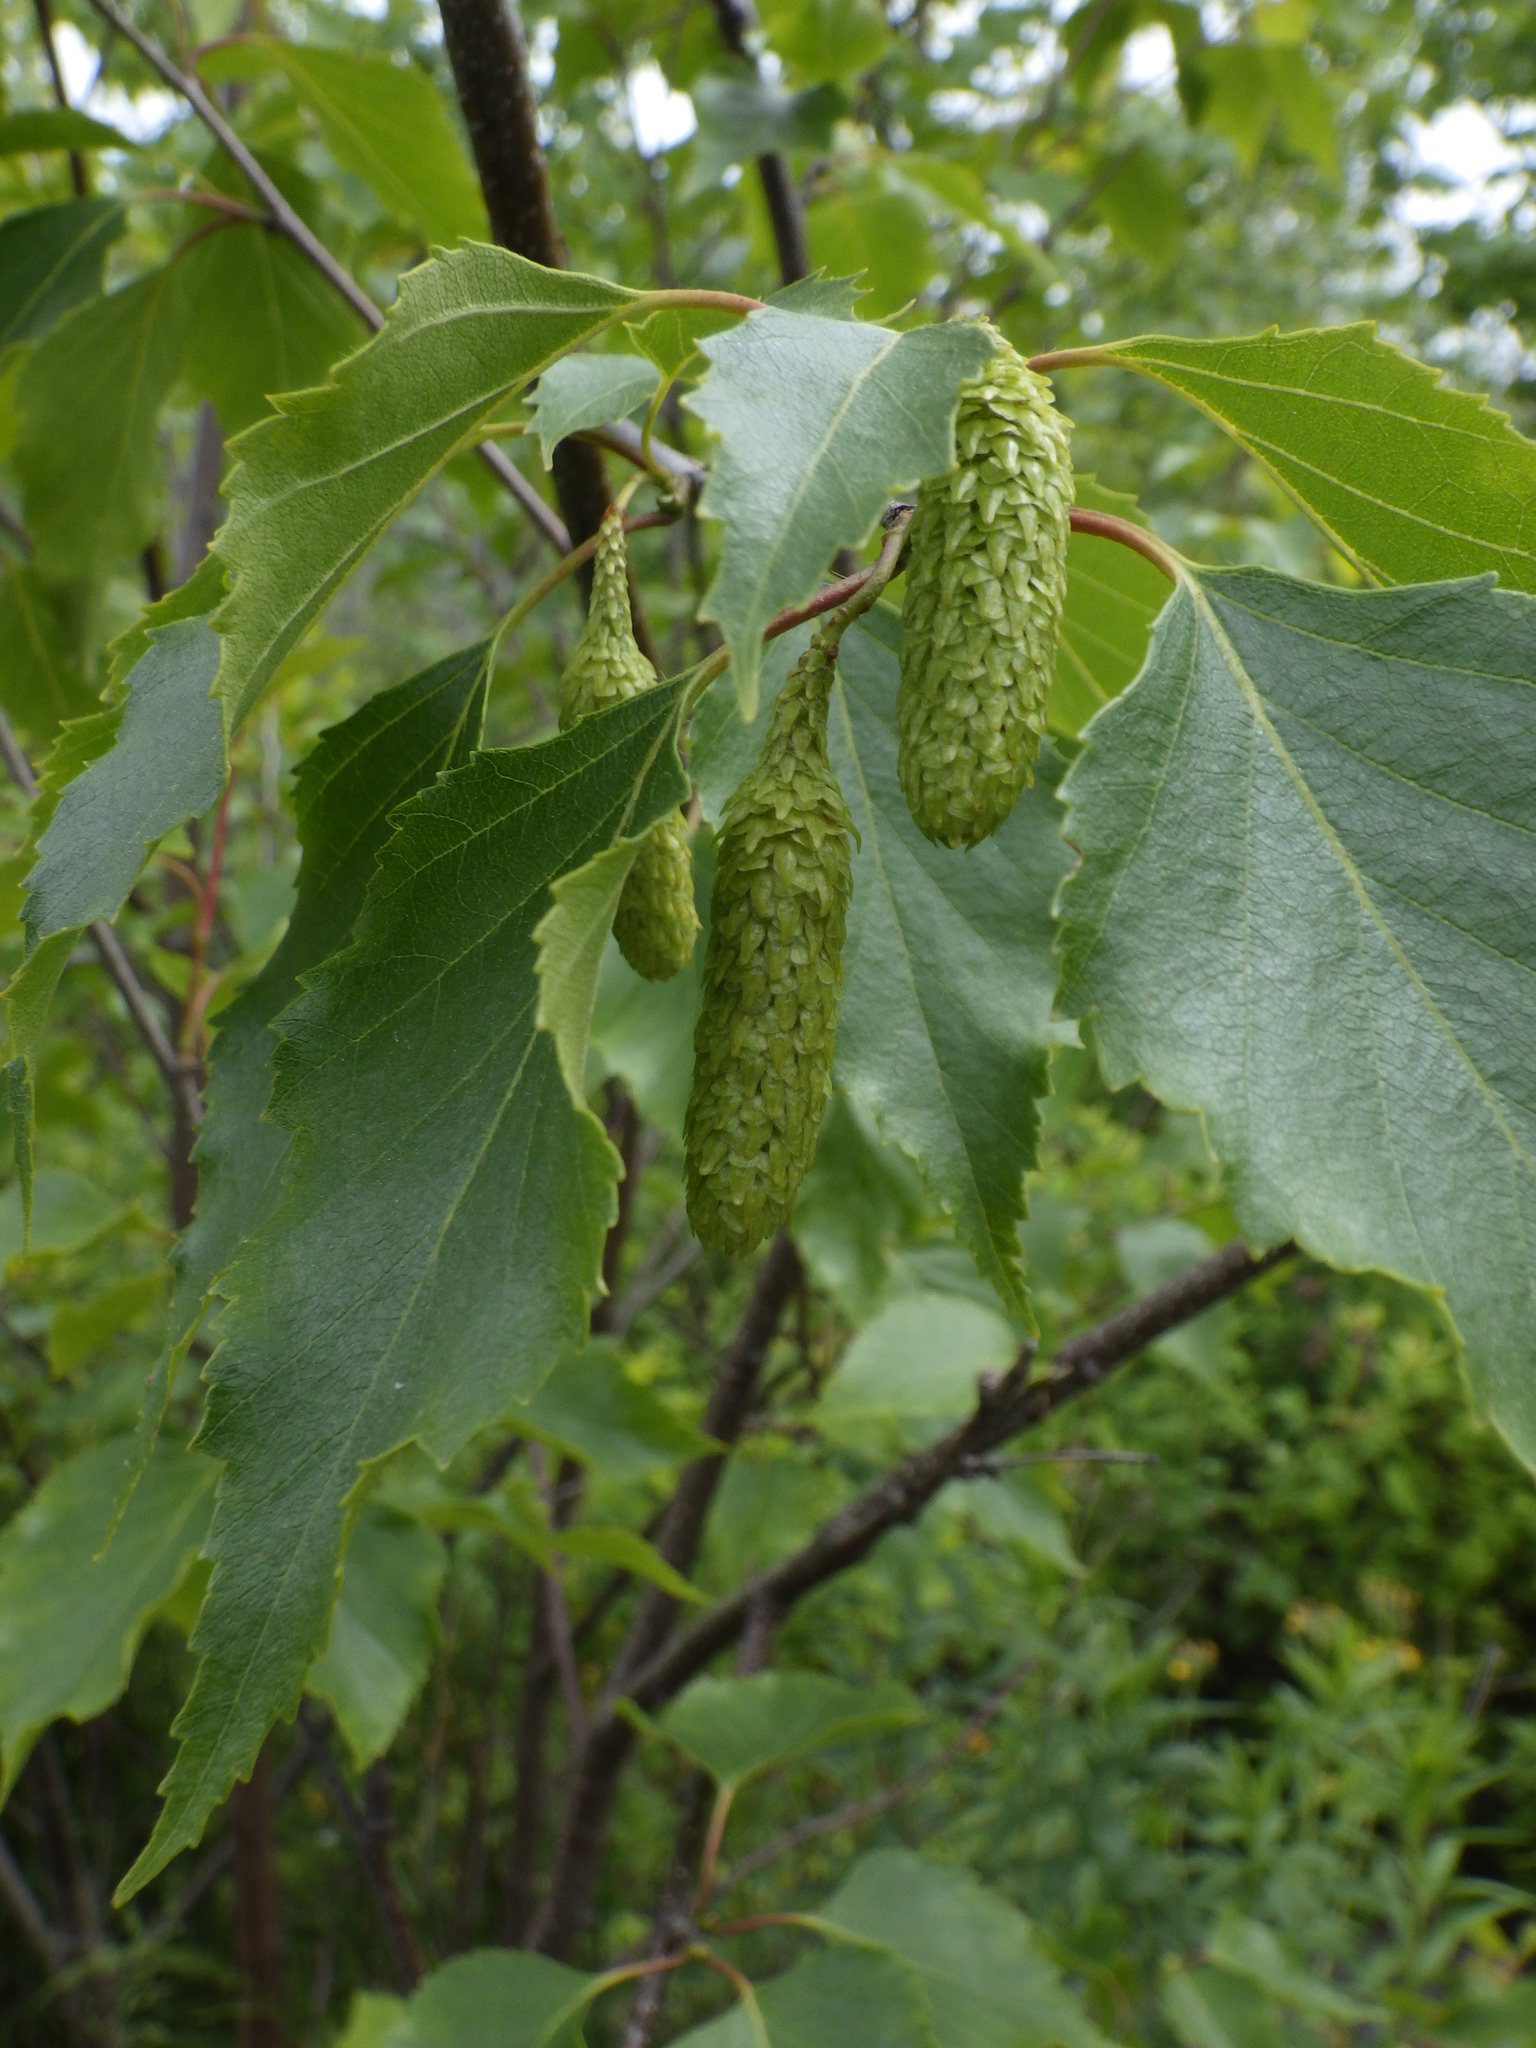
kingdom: Plantae
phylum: Tracheophyta
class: Magnoliopsida
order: Fagales
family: Betulaceae
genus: Betula
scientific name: Betula populifolia
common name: Fire birch
